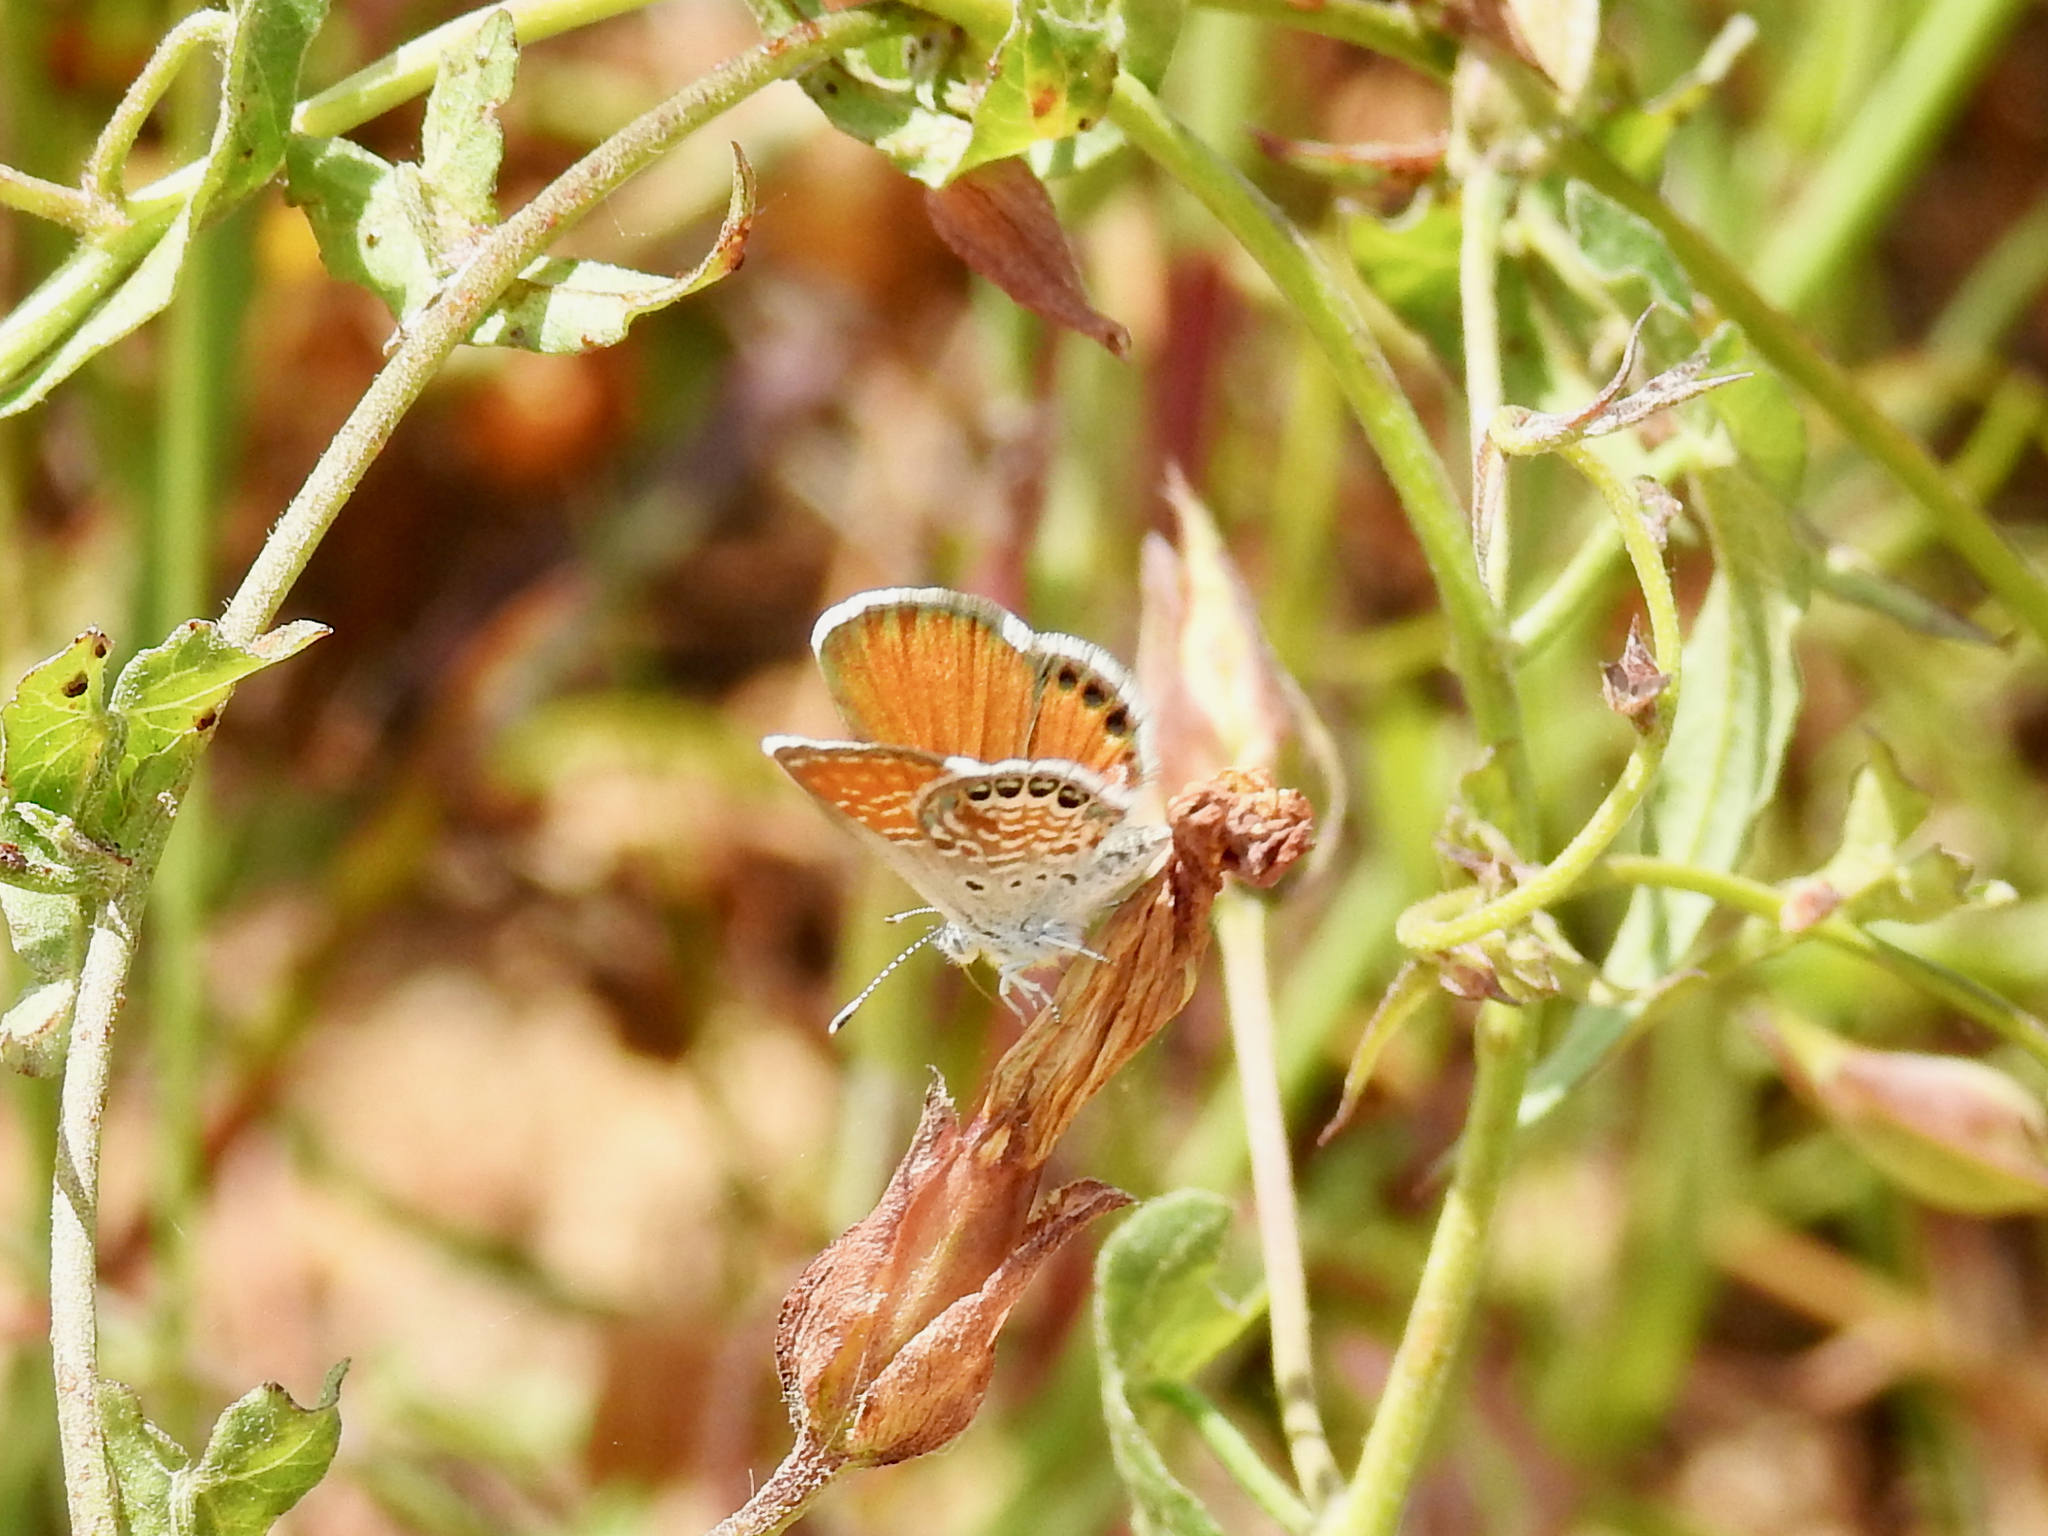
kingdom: Animalia
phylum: Arthropoda
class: Insecta
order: Lepidoptera
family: Lycaenidae
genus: Brephidium
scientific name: Brephidium exilis
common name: Pygmy blue
